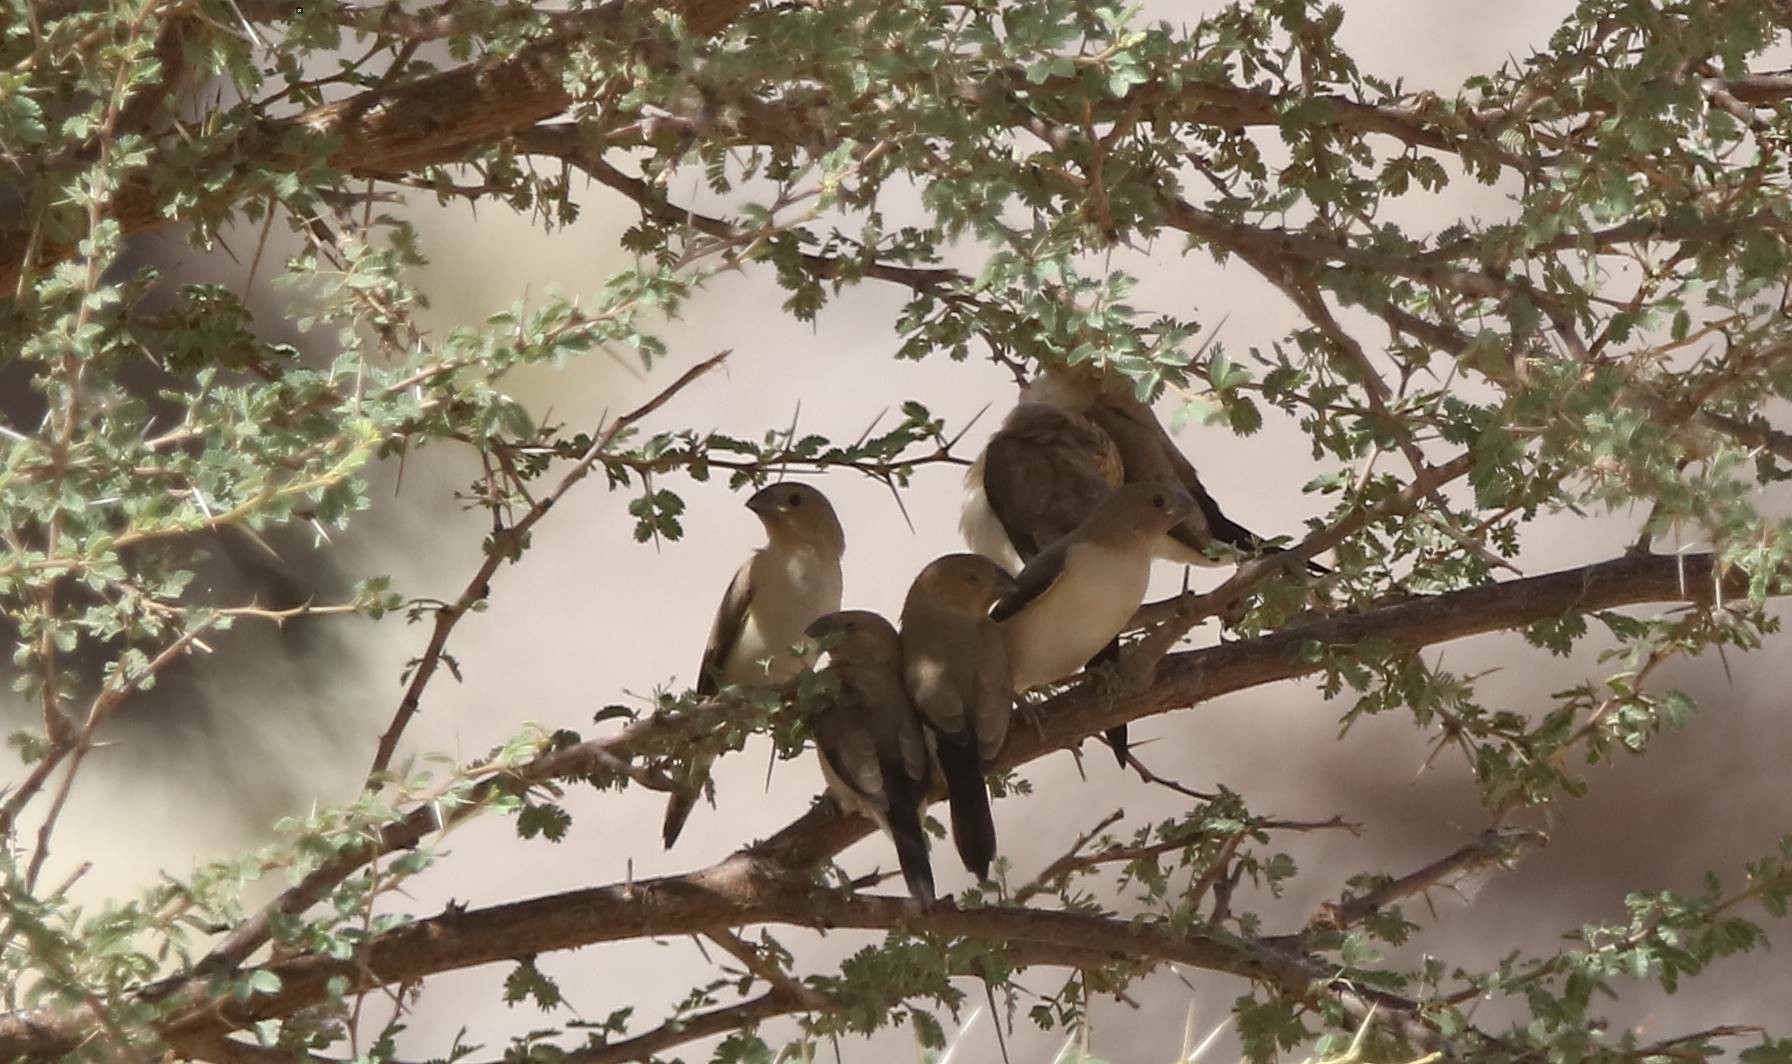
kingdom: Animalia
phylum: Chordata
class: Aves
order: Passeriformes
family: Estrildidae
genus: Euodice
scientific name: Euodice cantans
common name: African silverbill
